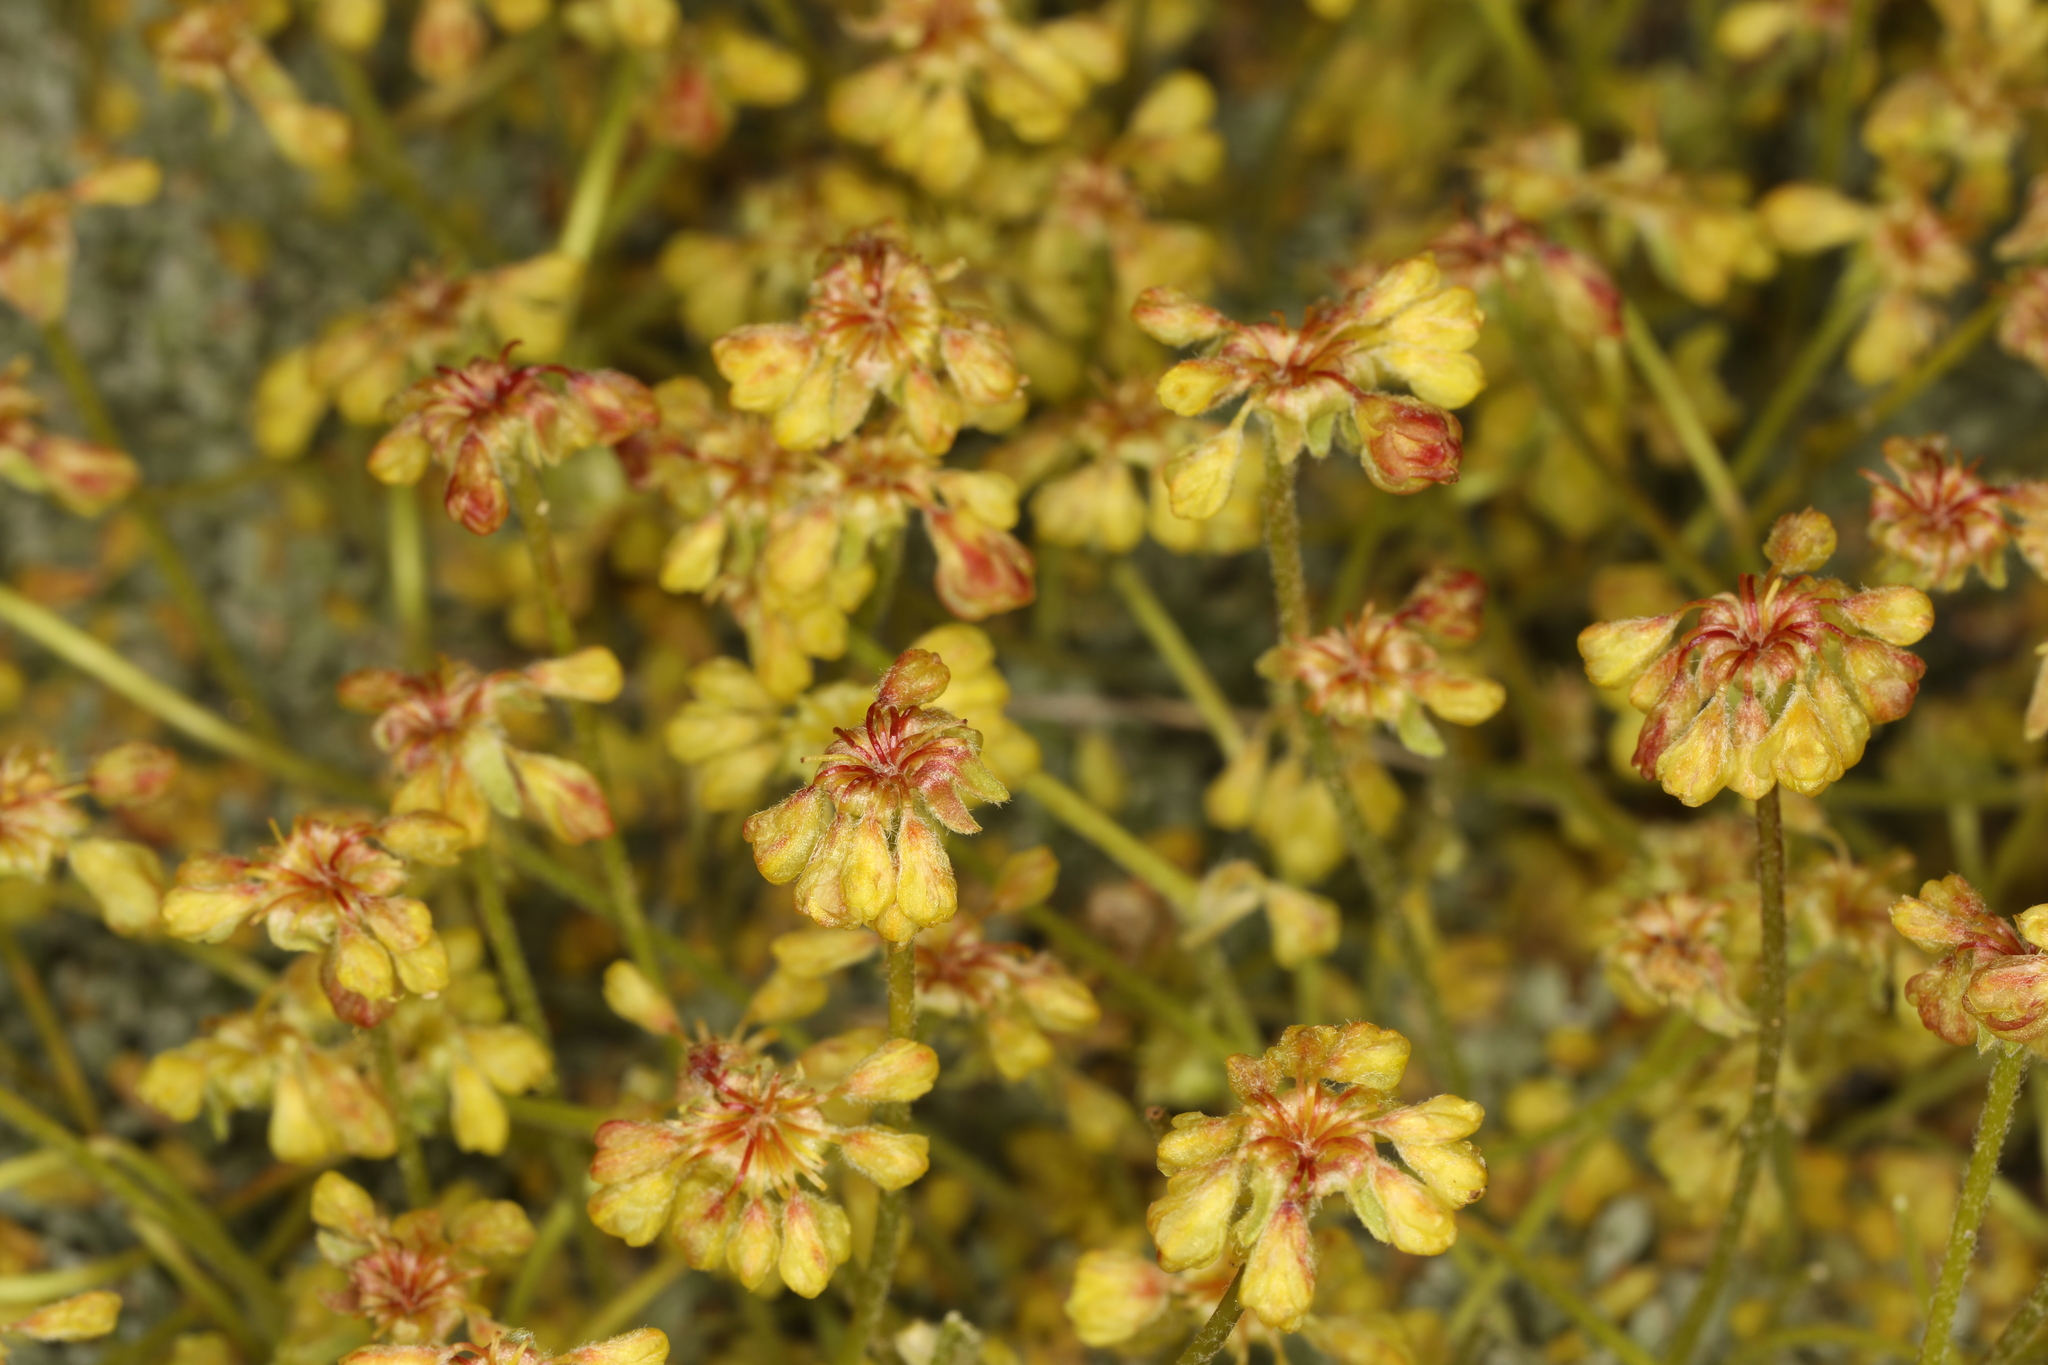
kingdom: Plantae
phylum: Tracheophyta
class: Magnoliopsida
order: Caryophyllales
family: Polygonaceae
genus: Eriogonum
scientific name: Eriogonum caespitosum
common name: Matted wild buckwheat
